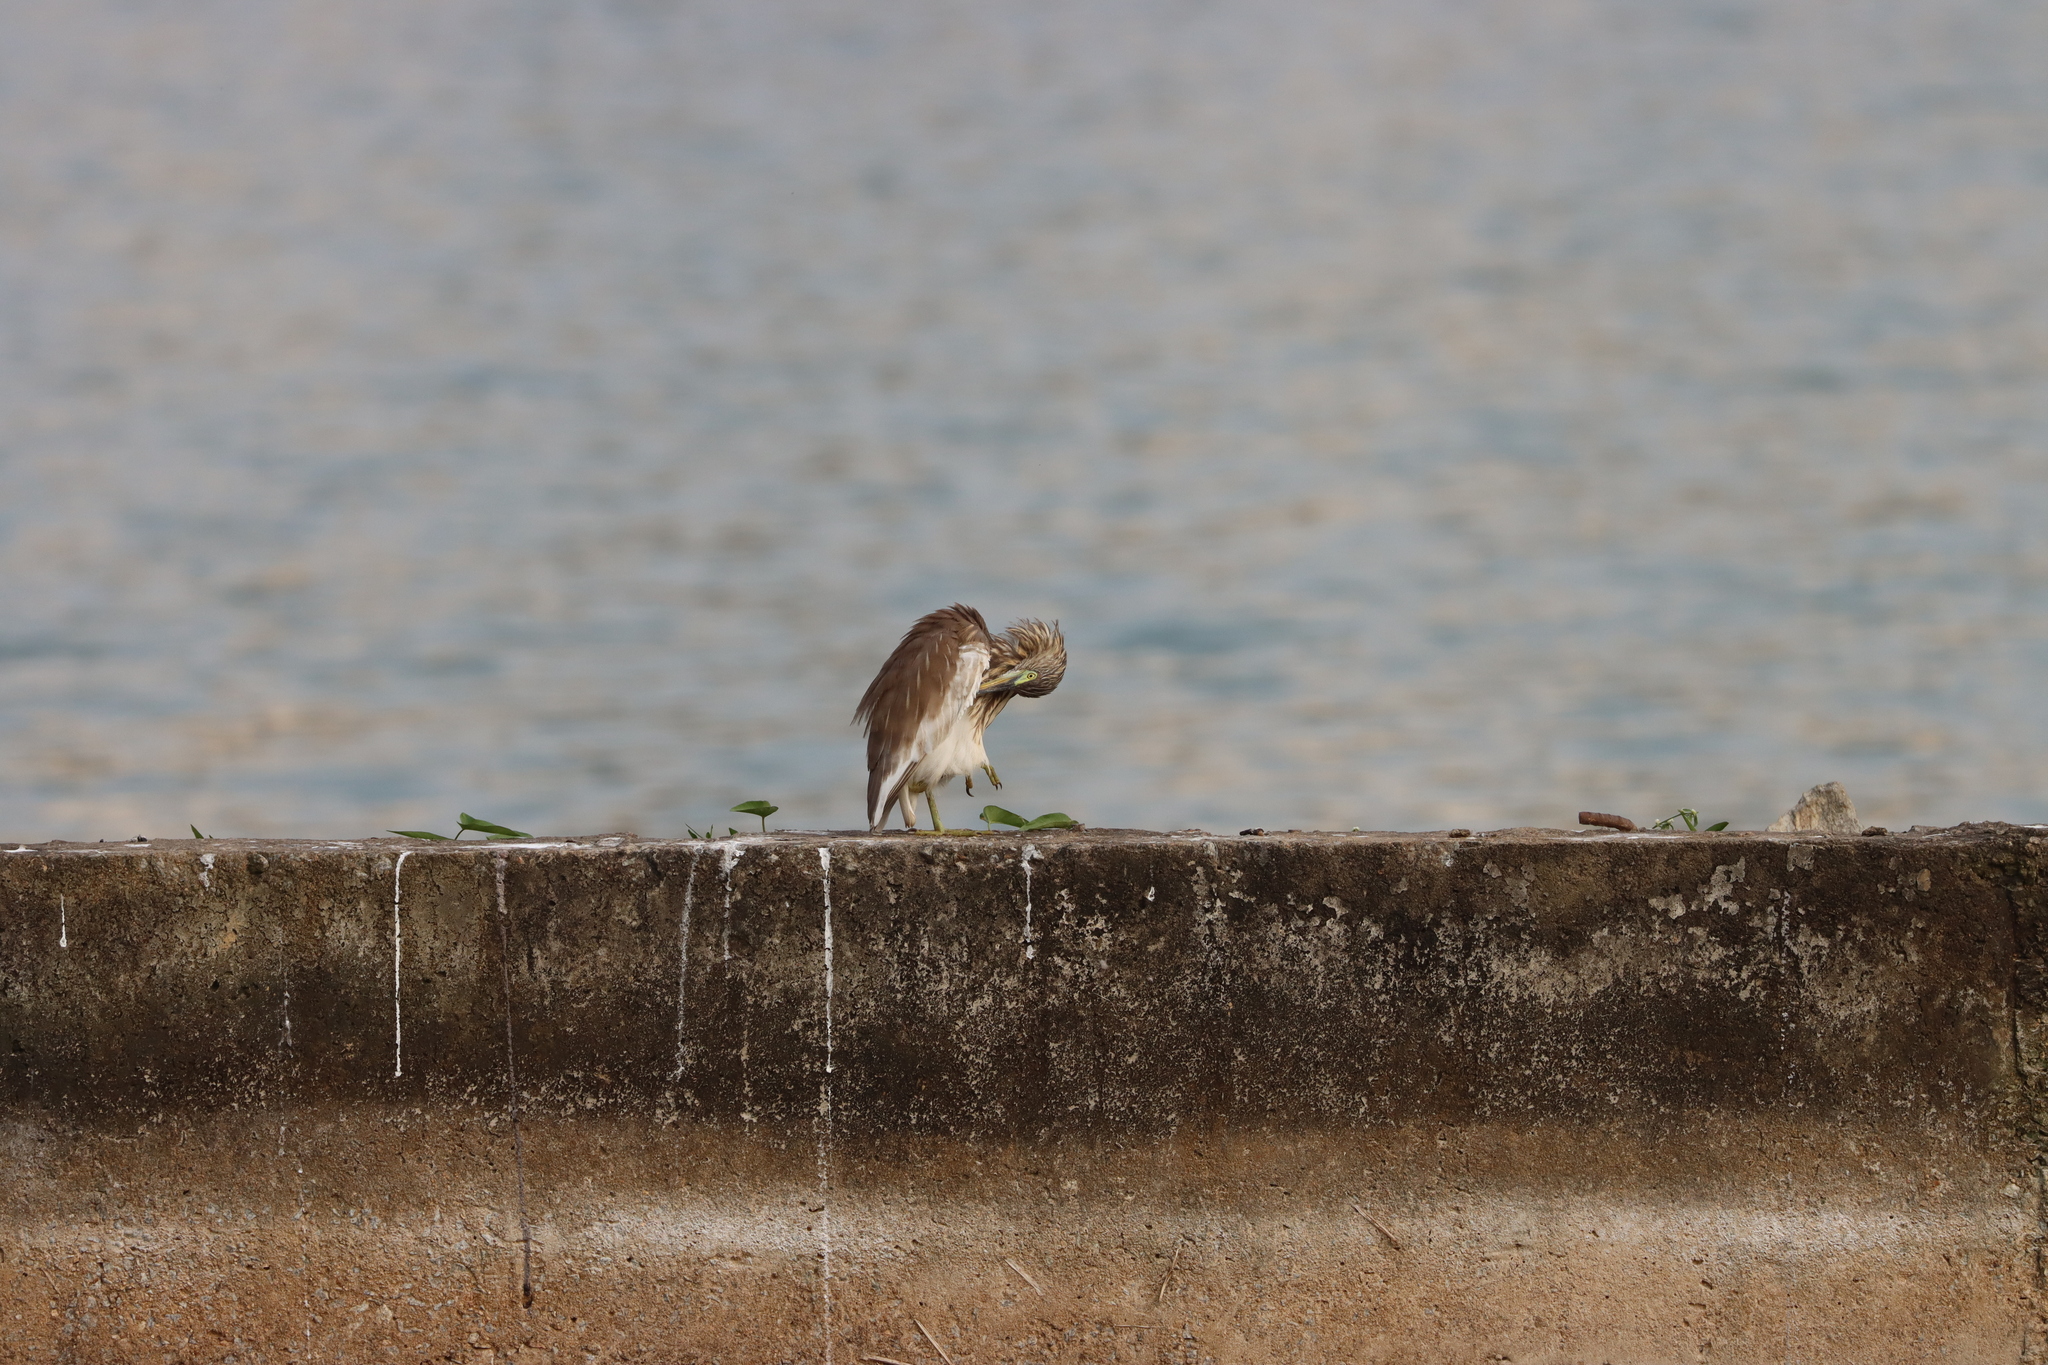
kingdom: Animalia
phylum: Chordata
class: Aves
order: Pelecaniformes
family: Ardeidae
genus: Ardeola
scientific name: Ardeola grayii
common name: Indian pond heron
